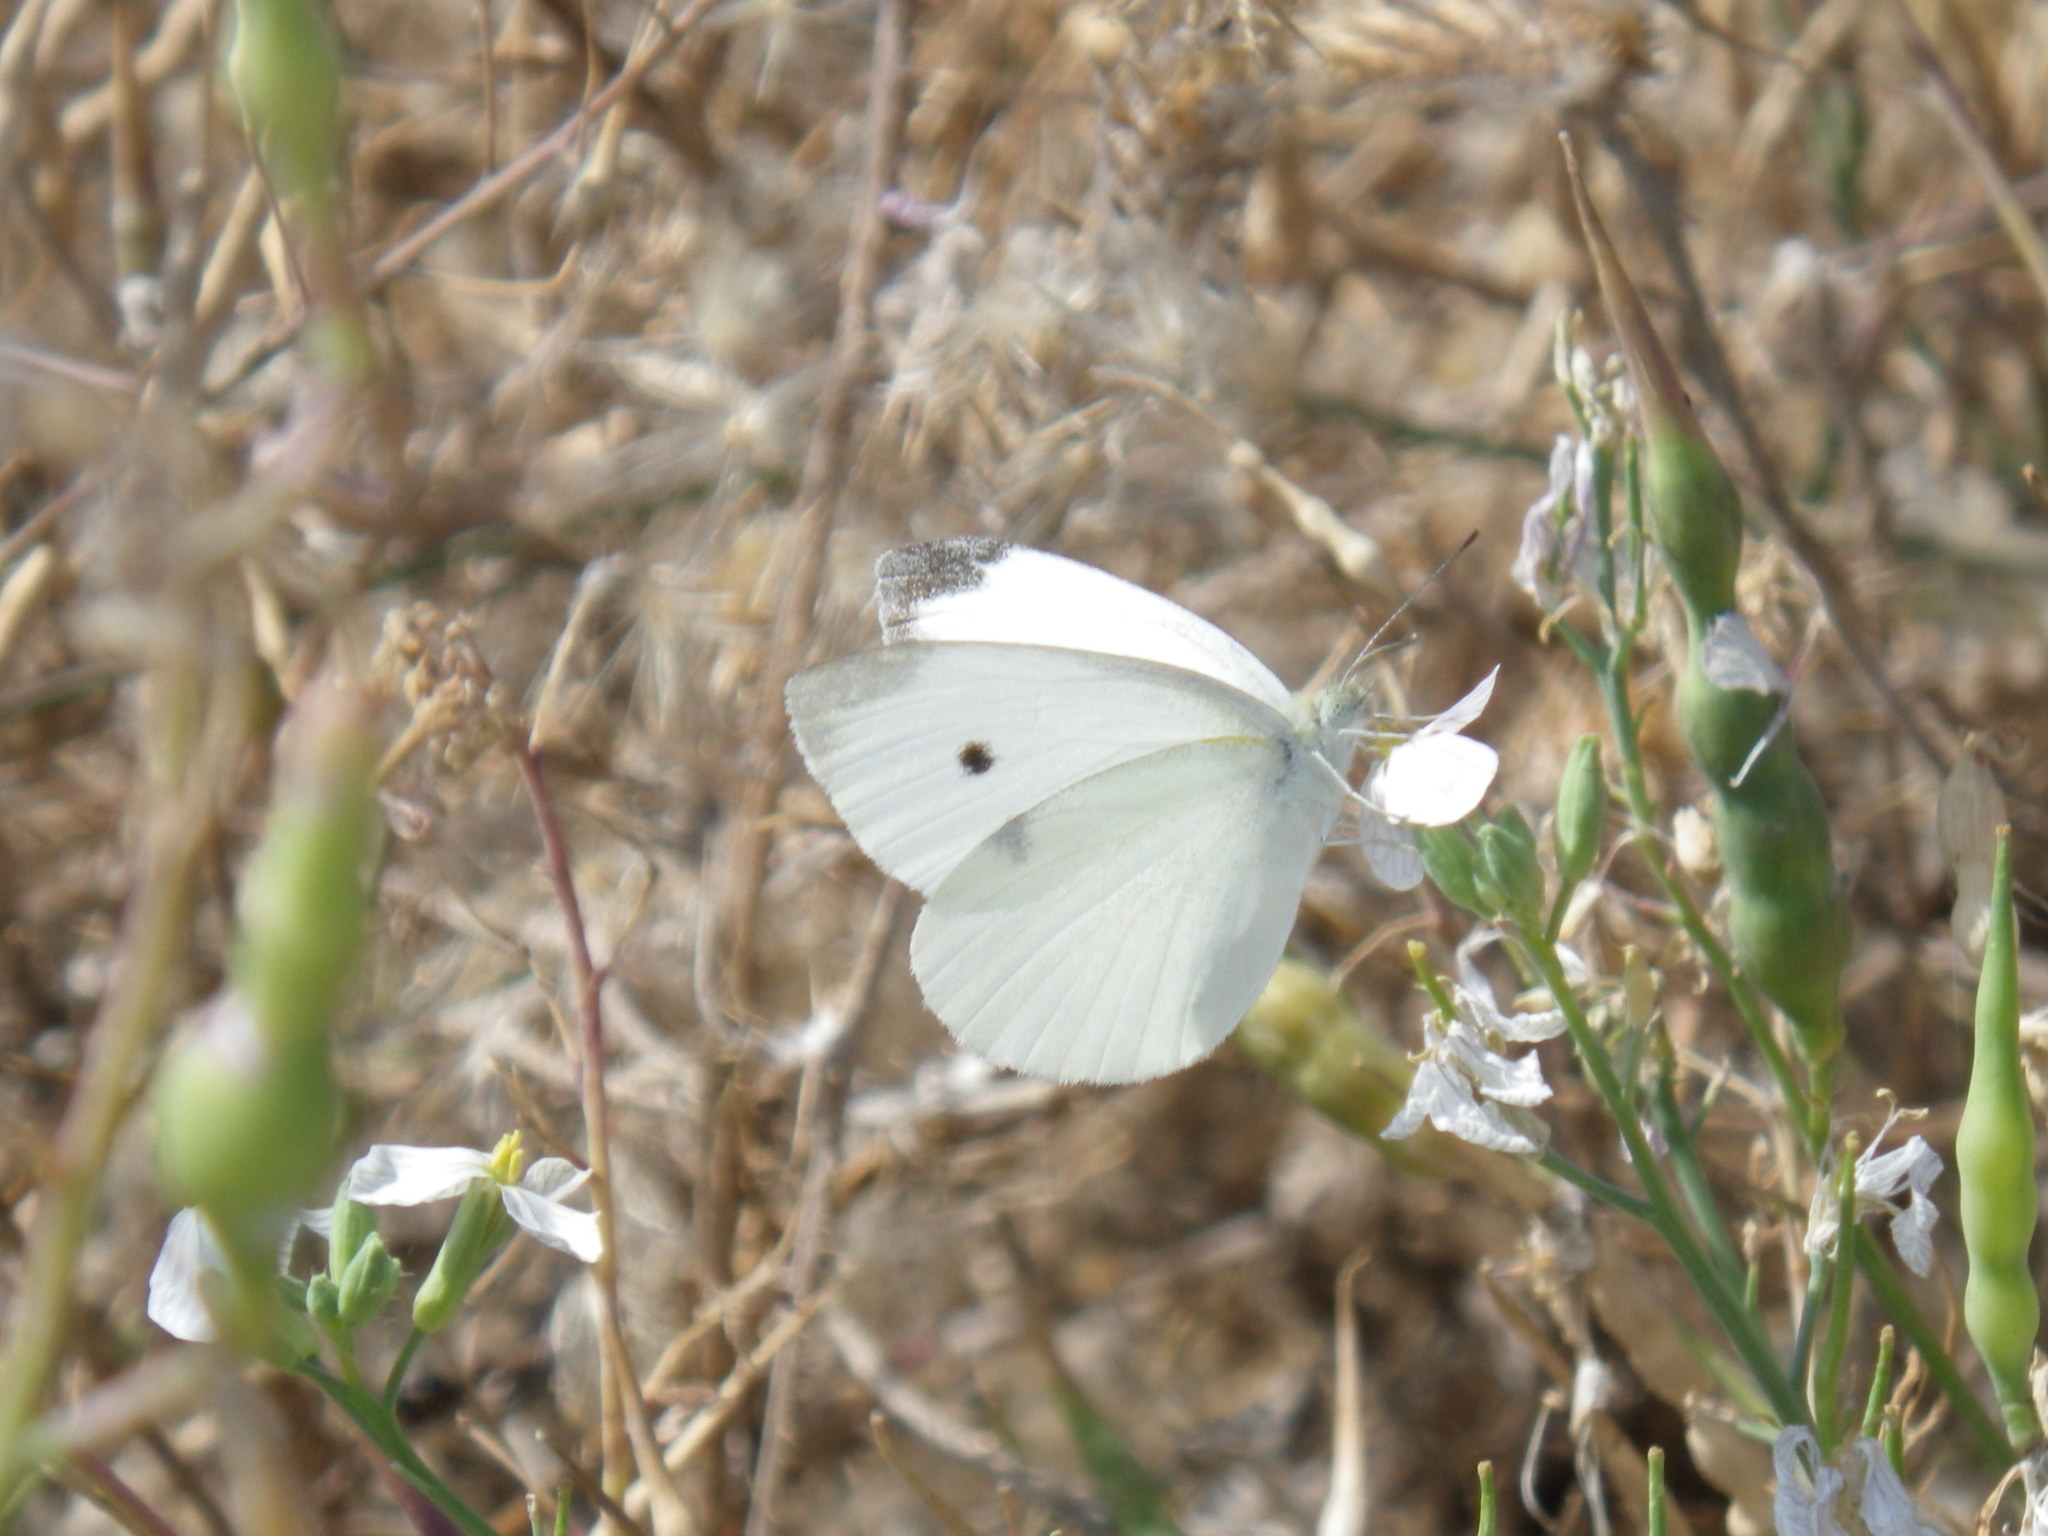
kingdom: Animalia
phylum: Arthropoda
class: Insecta
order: Lepidoptera
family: Pieridae
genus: Pieris
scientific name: Pieris rapae
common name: Small white
